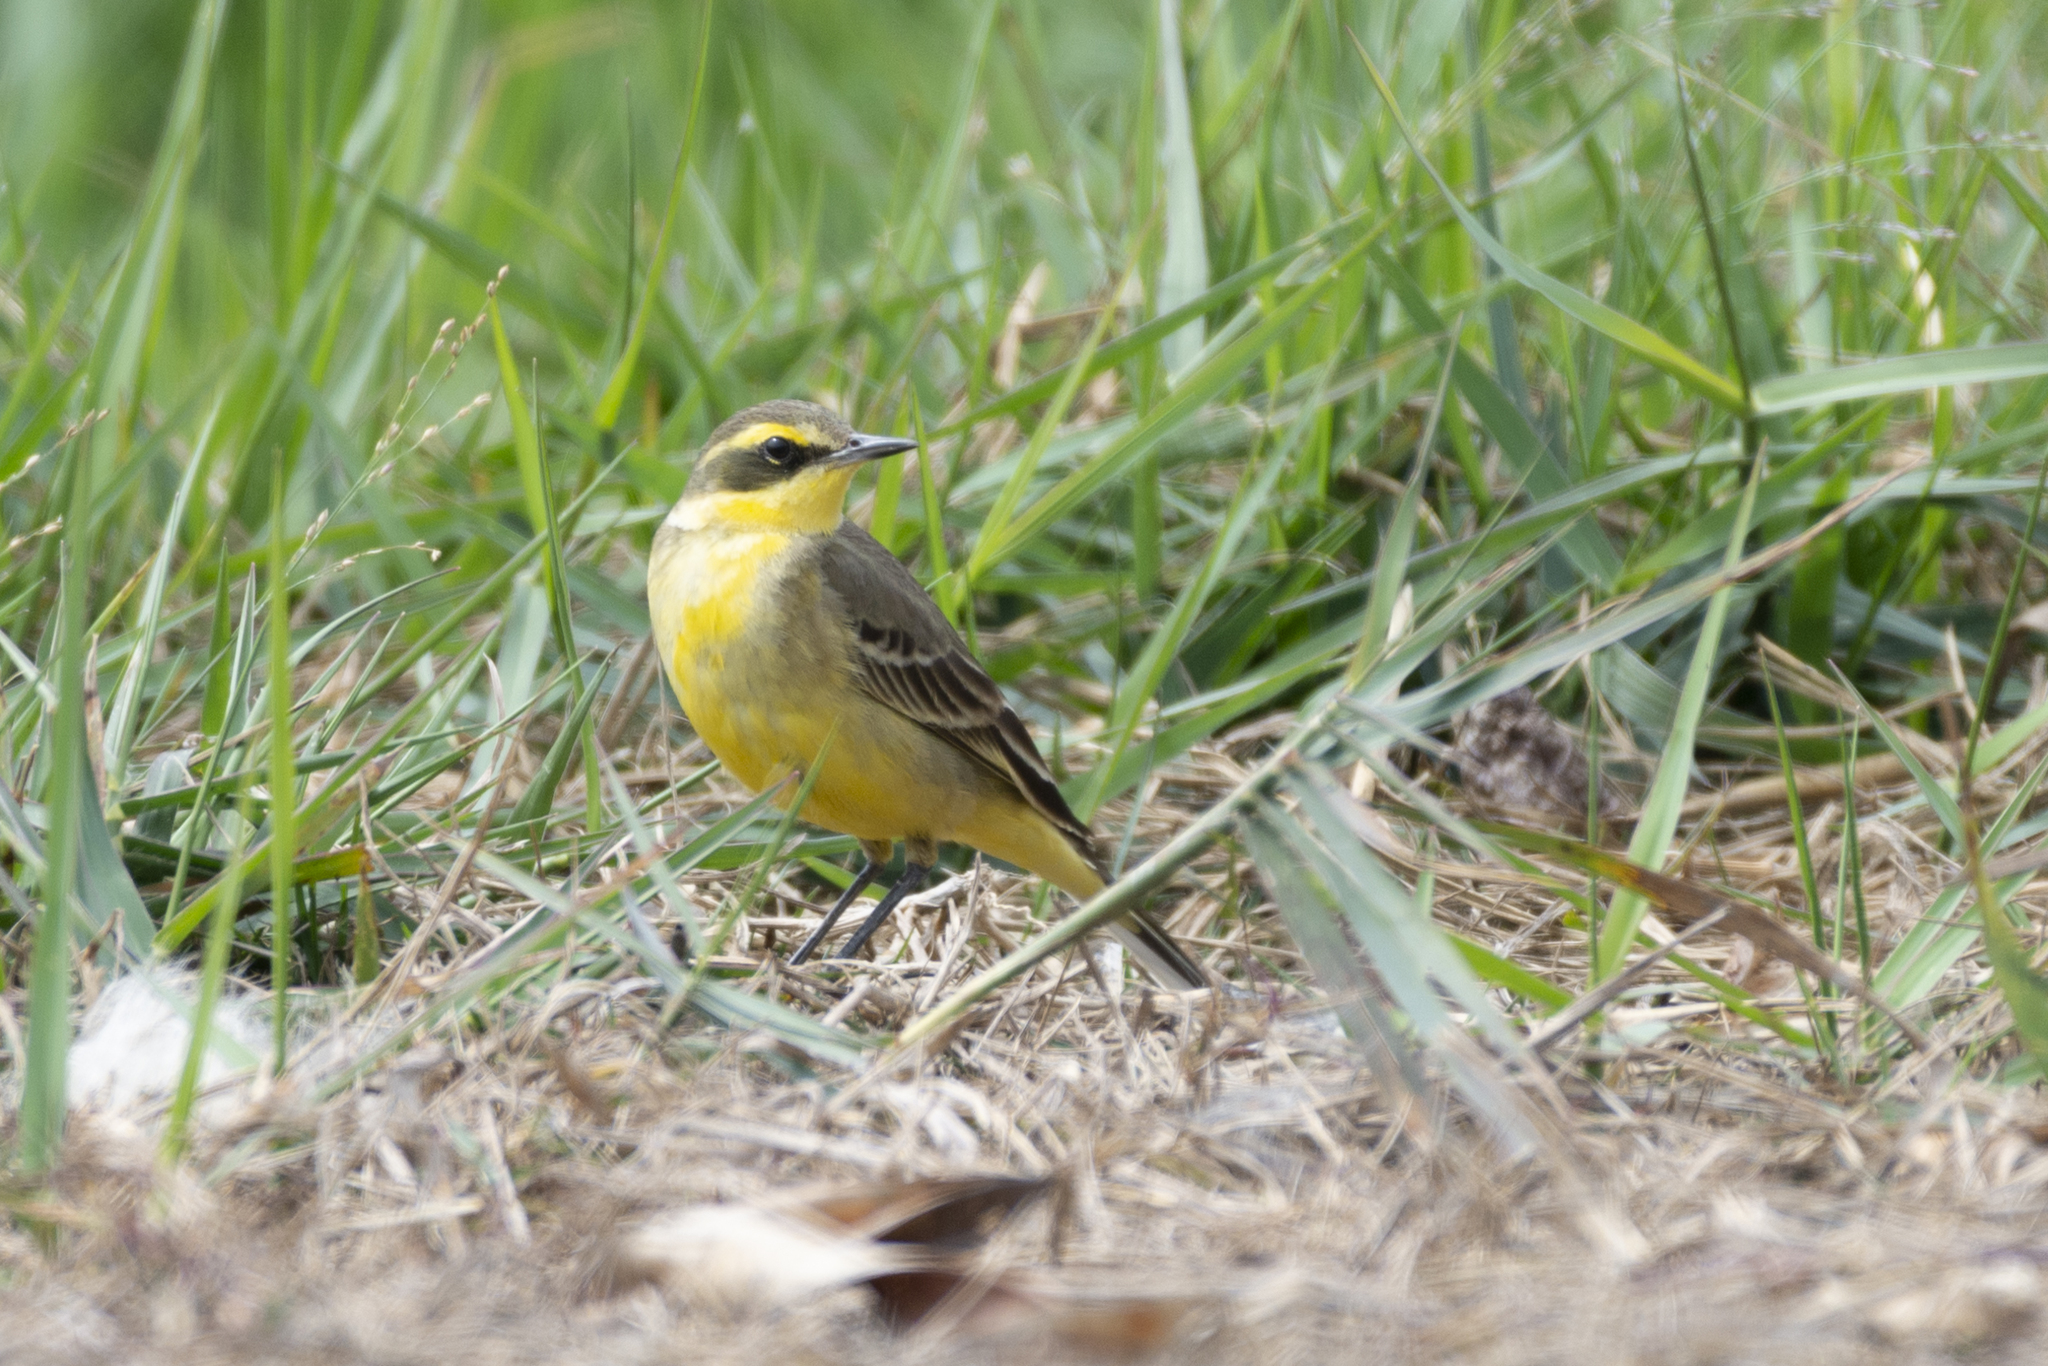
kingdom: Animalia
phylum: Chordata
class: Aves
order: Passeriformes
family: Motacillidae
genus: Motacilla
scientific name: Motacilla tschutschensis
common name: Eastern yellow wagtail
